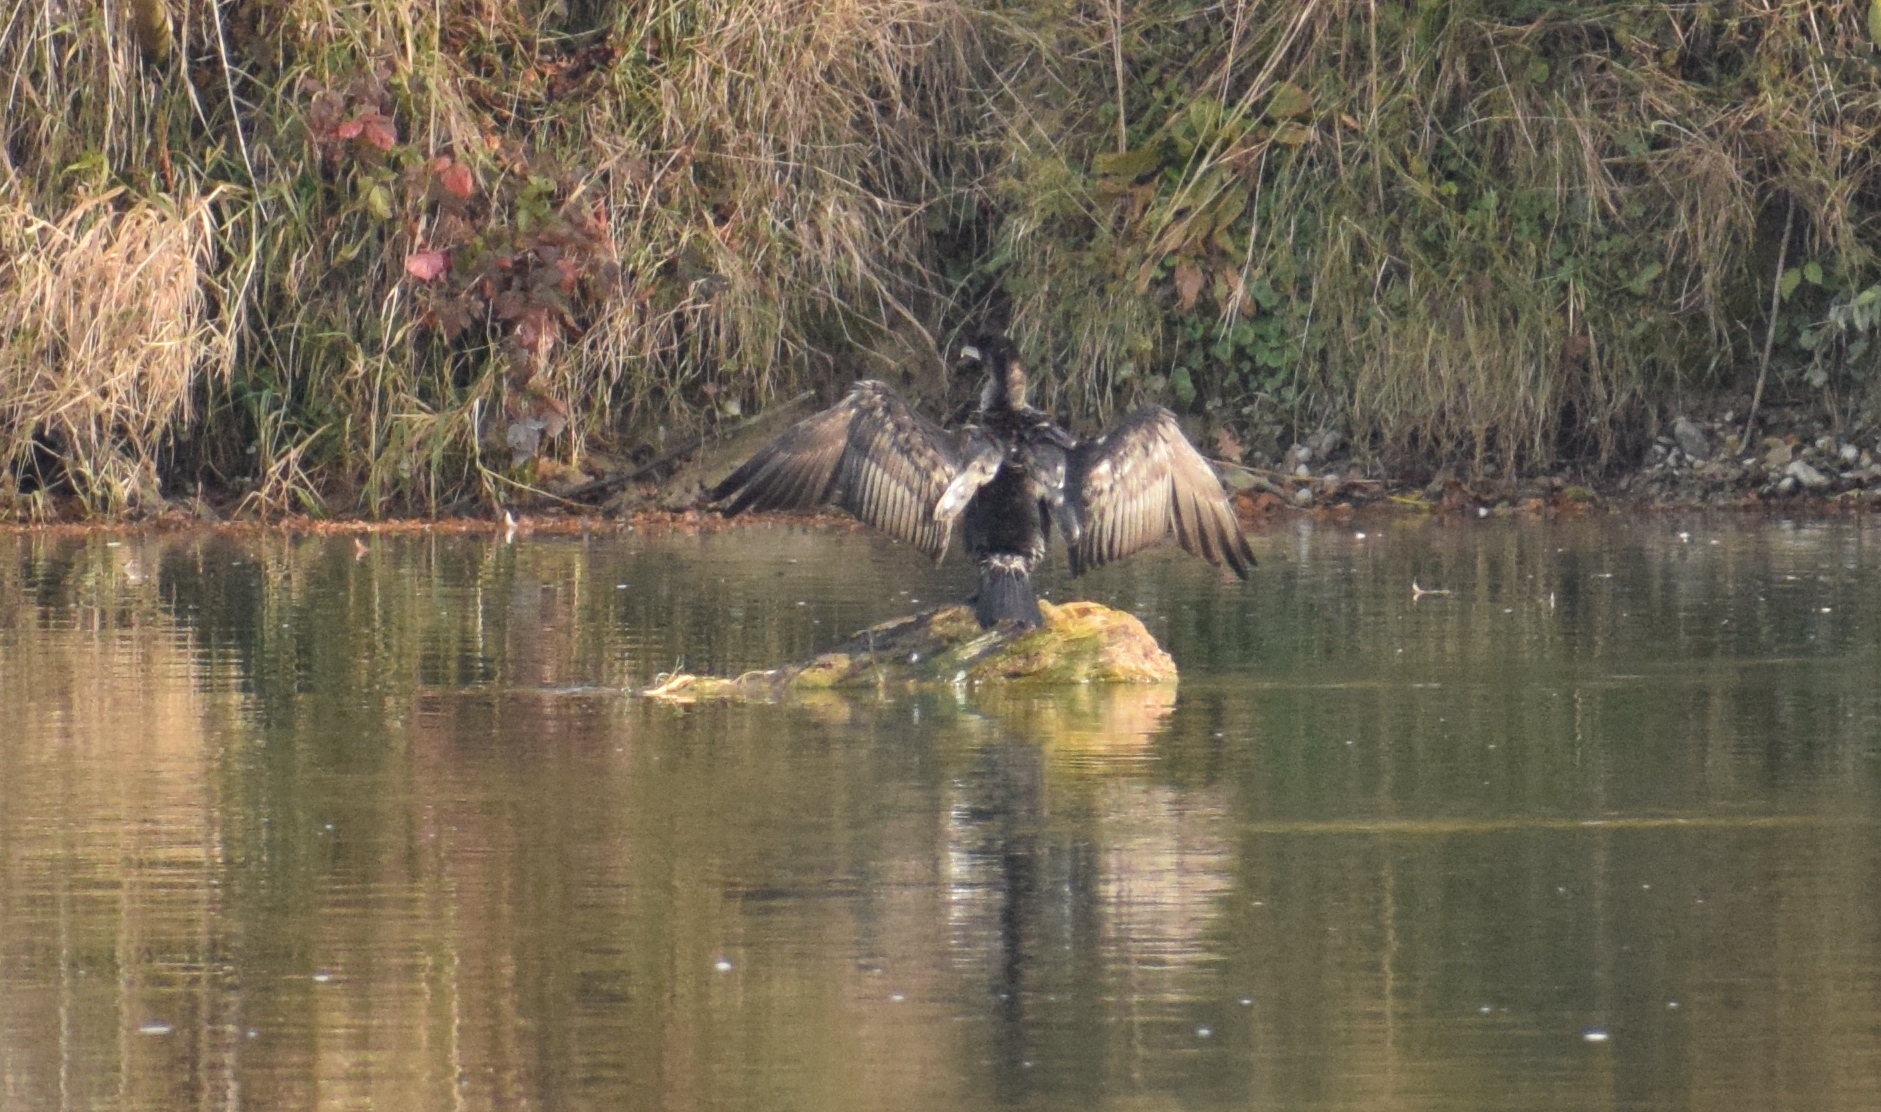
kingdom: Animalia
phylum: Chordata
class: Aves
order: Suliformes
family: Phalacrocoracidae
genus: Phalacrocorax
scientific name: Phalacrocorax carbo
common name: Great cormorant
